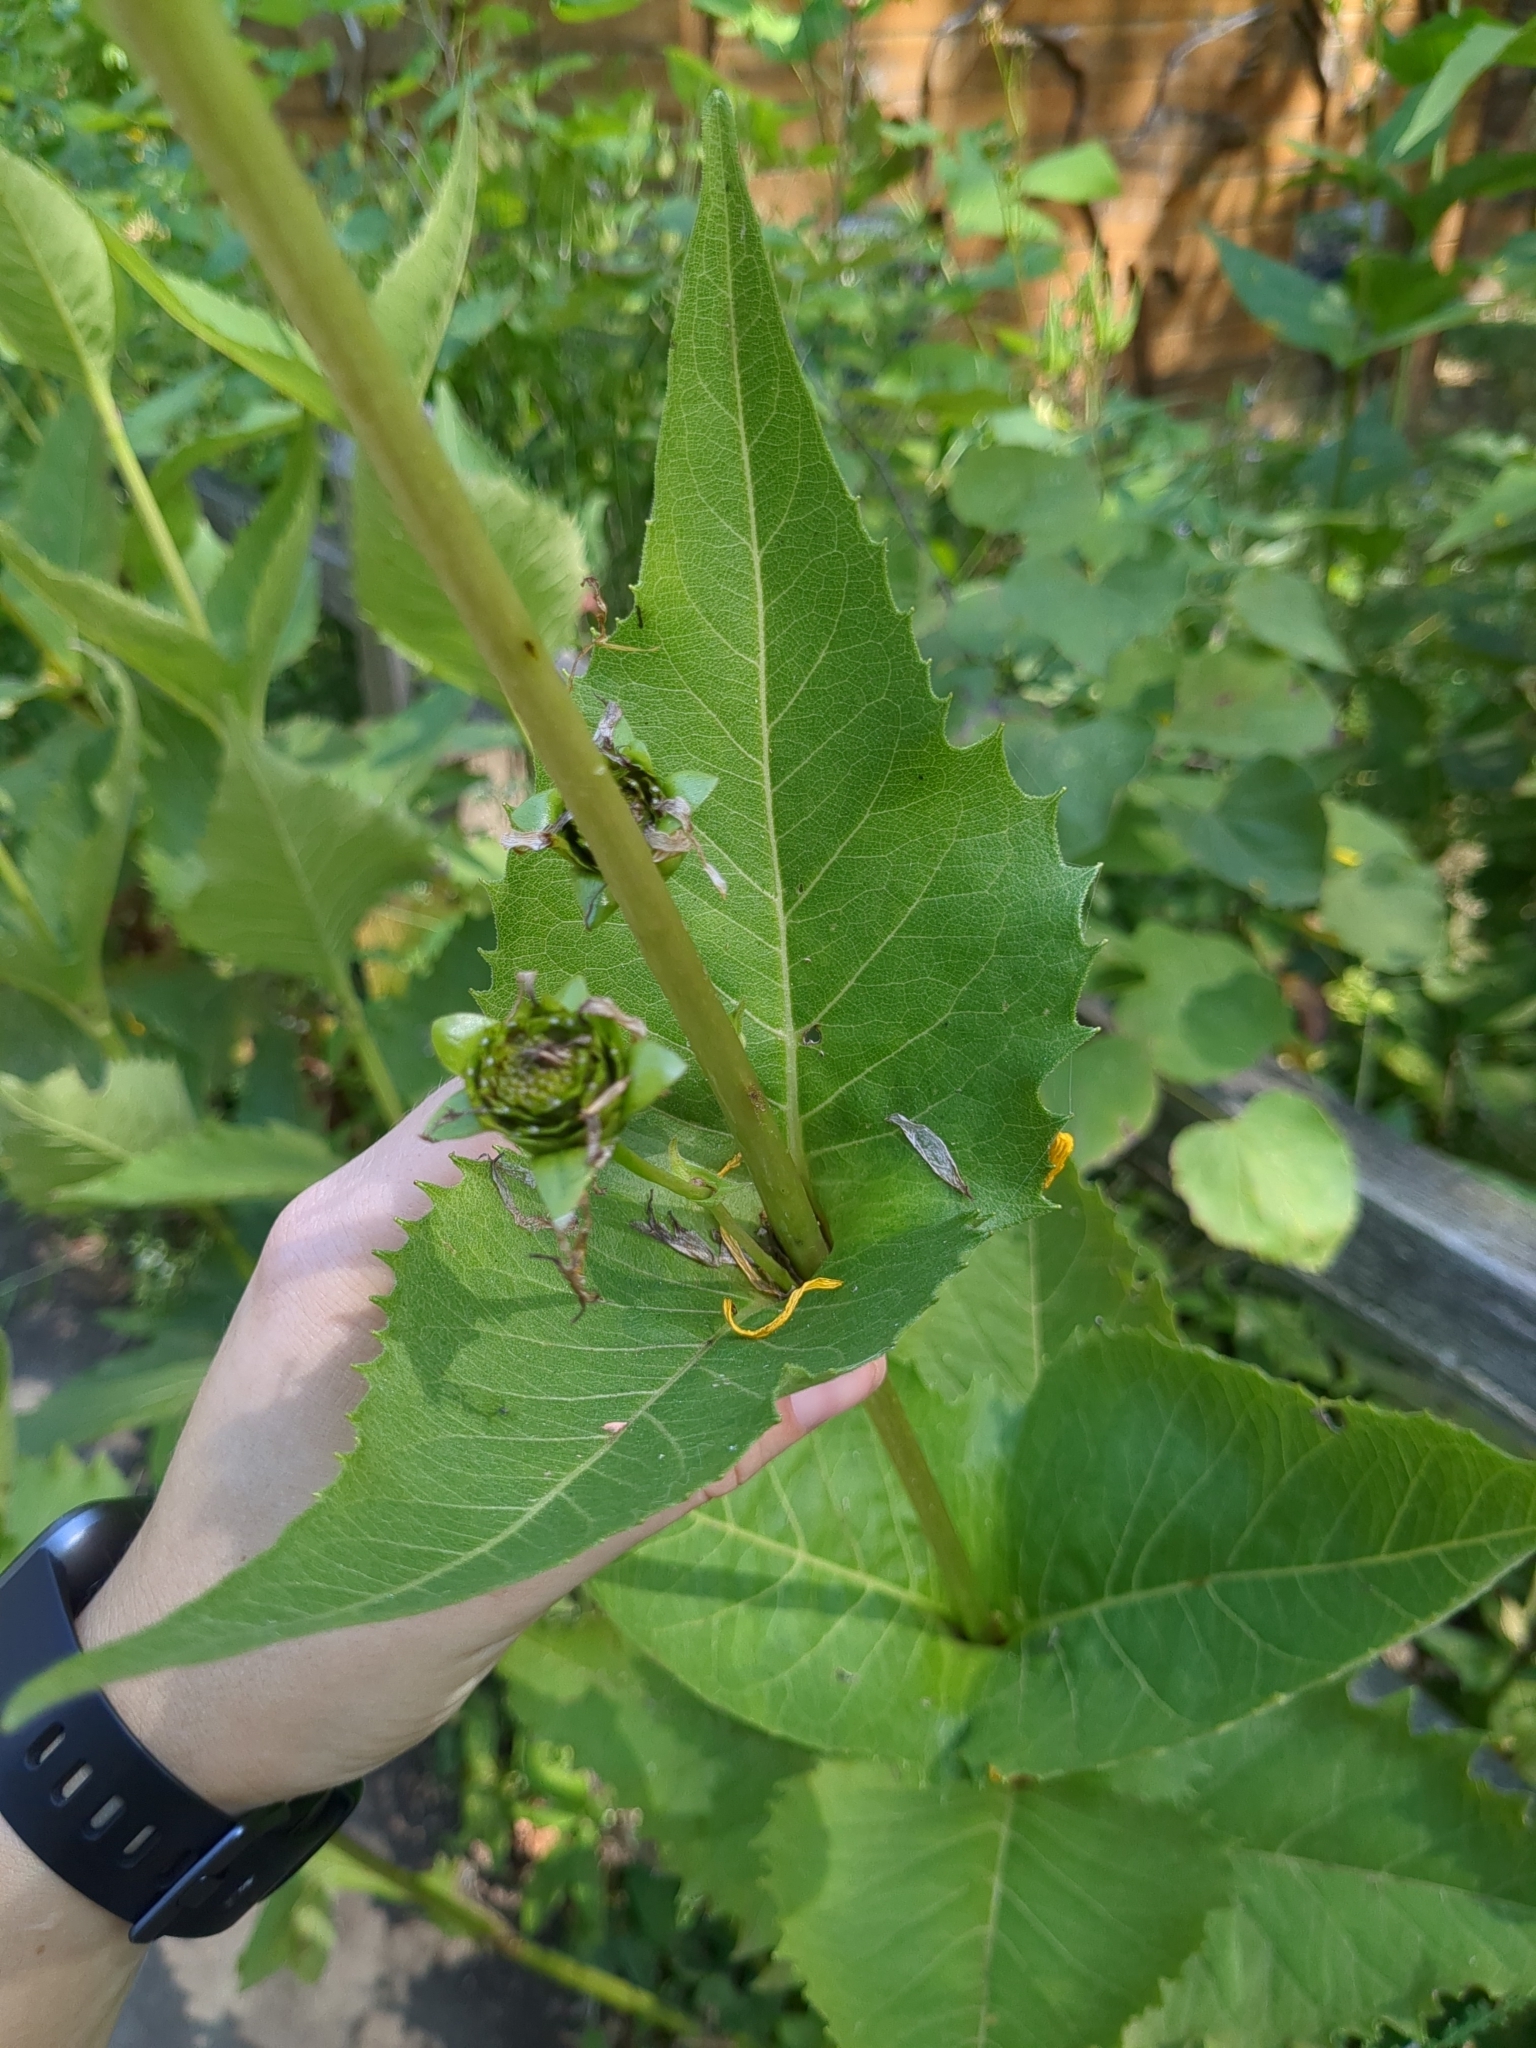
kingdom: Plantae
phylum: Tracheophyta
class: Magnoliopsida
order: Asterales
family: Asteraceae
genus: Silphium
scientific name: Silphium perfoliatum
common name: Cup-plant
